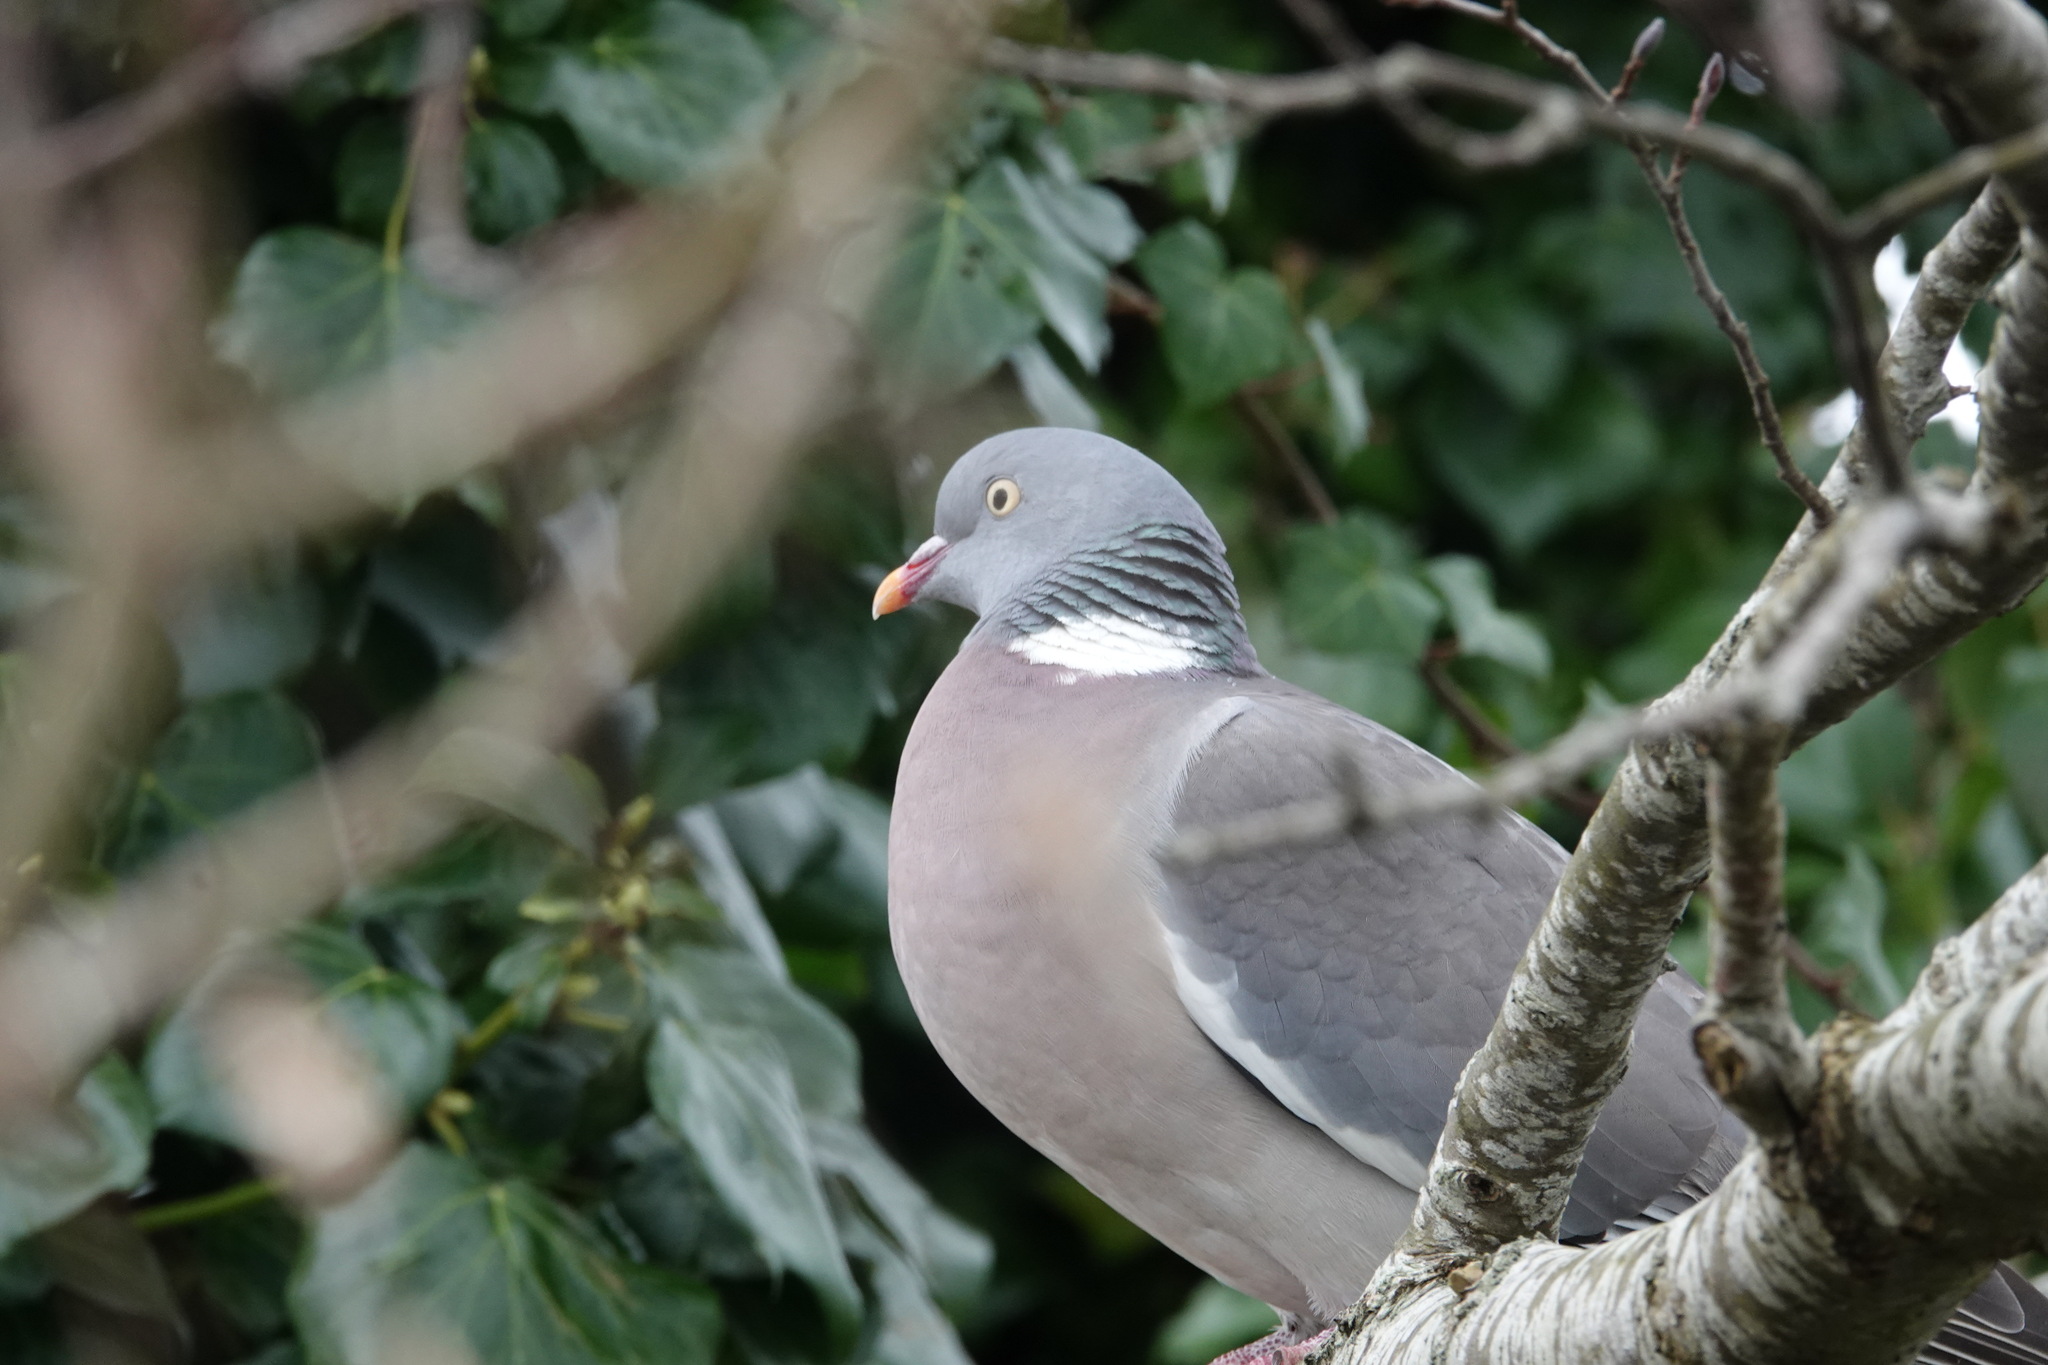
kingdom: Animalia
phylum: Chordata
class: Aves
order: Columbiformes
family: Columbidae
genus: Columba
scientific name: Columba palumbus
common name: Common wood pigeon
